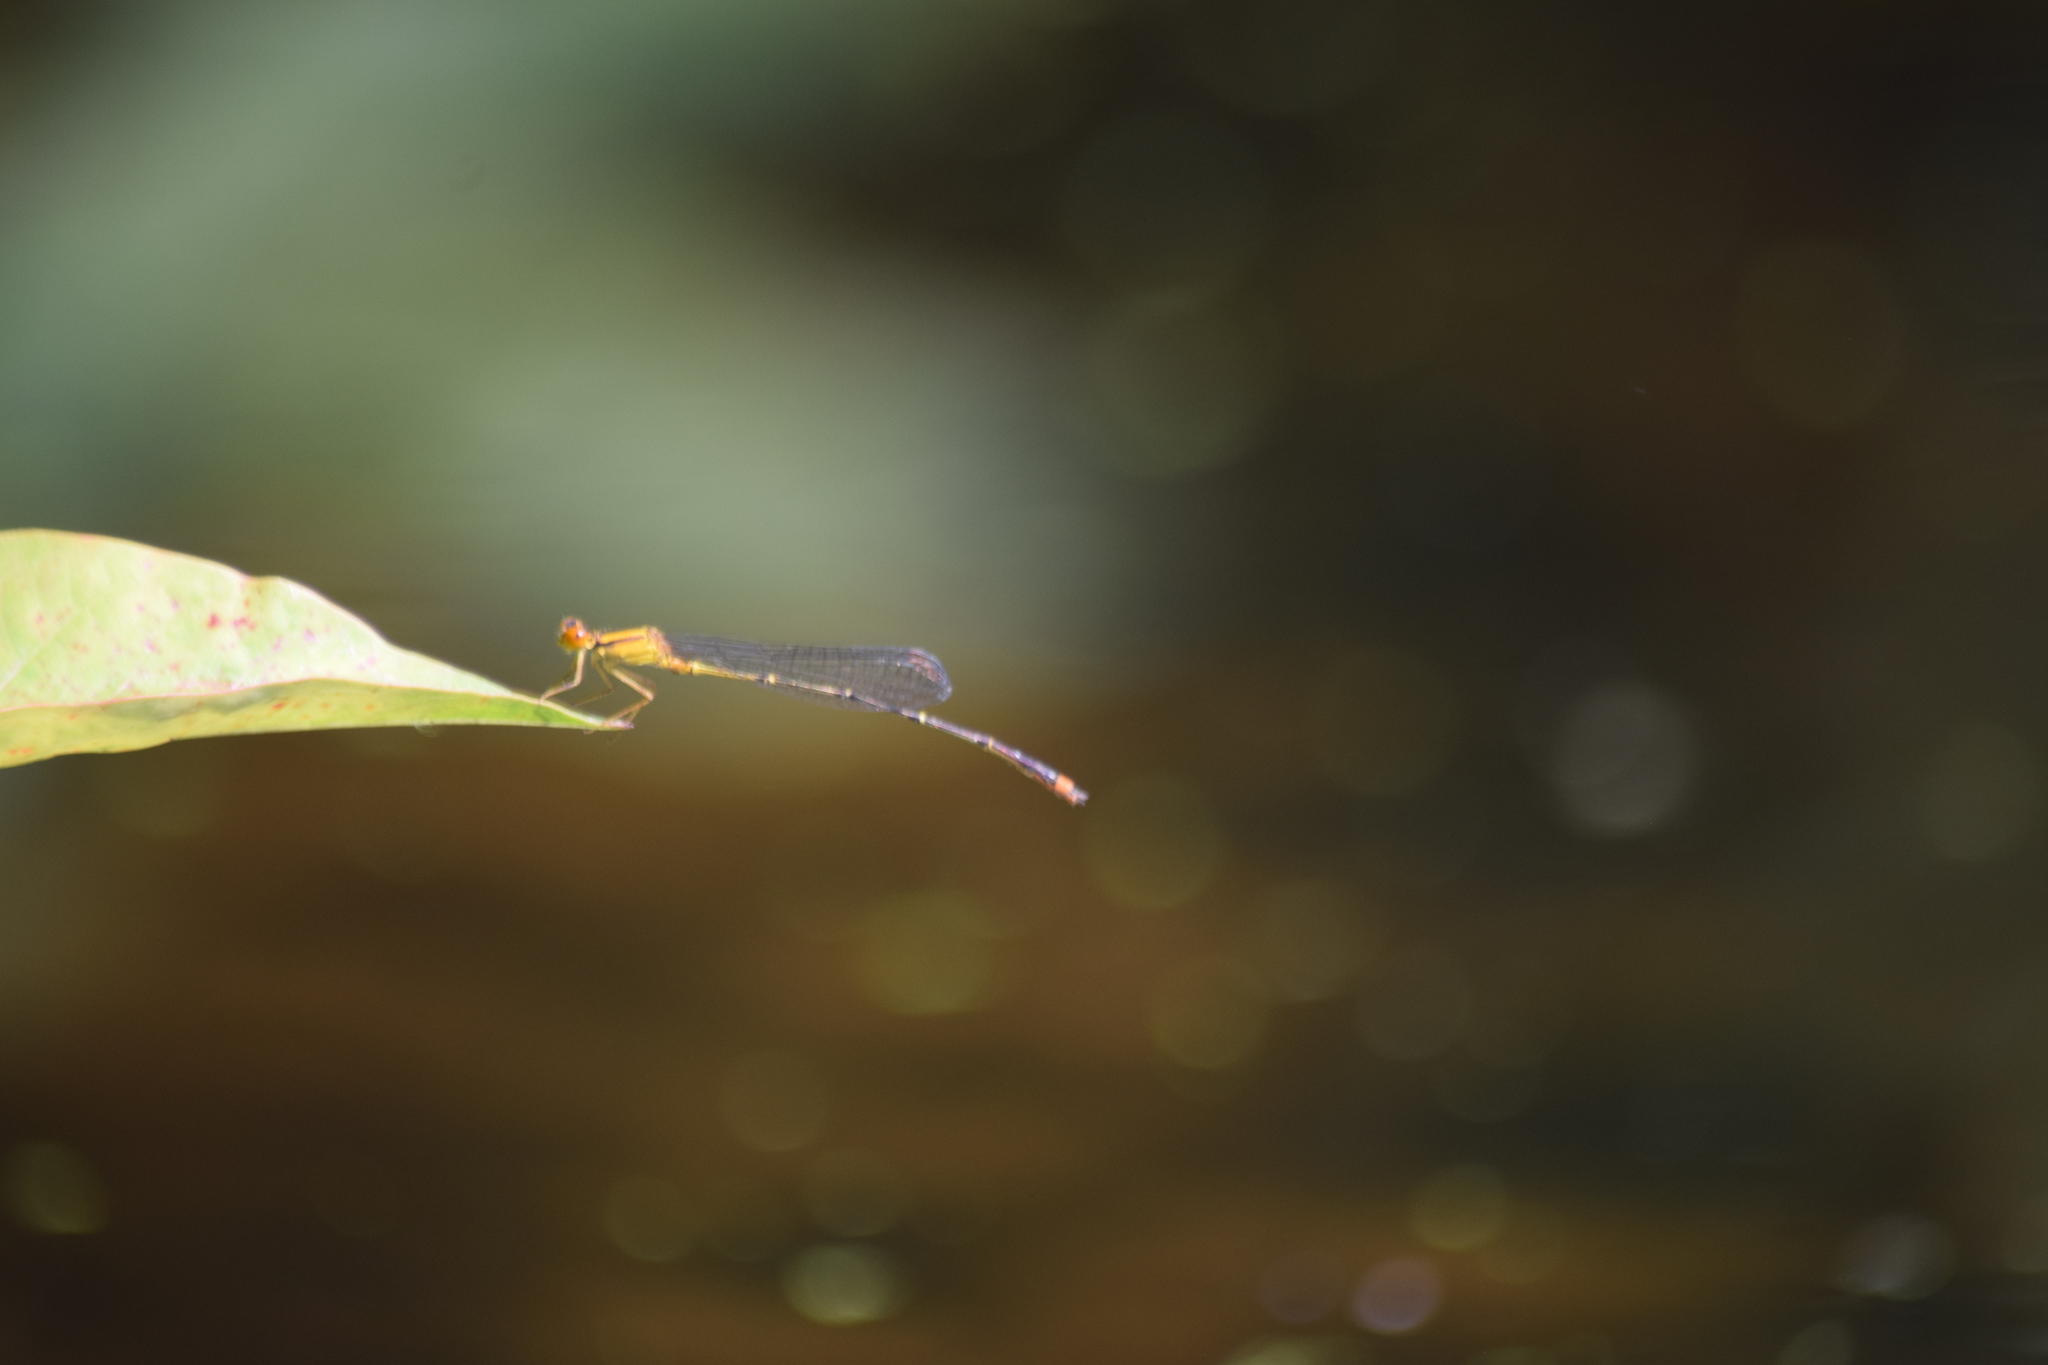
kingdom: Animalia
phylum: Arthropoda
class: Insecta
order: Odonata
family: Coenagrionidae
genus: Enallagma
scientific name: Enallagma signatum
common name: Orange bluet
